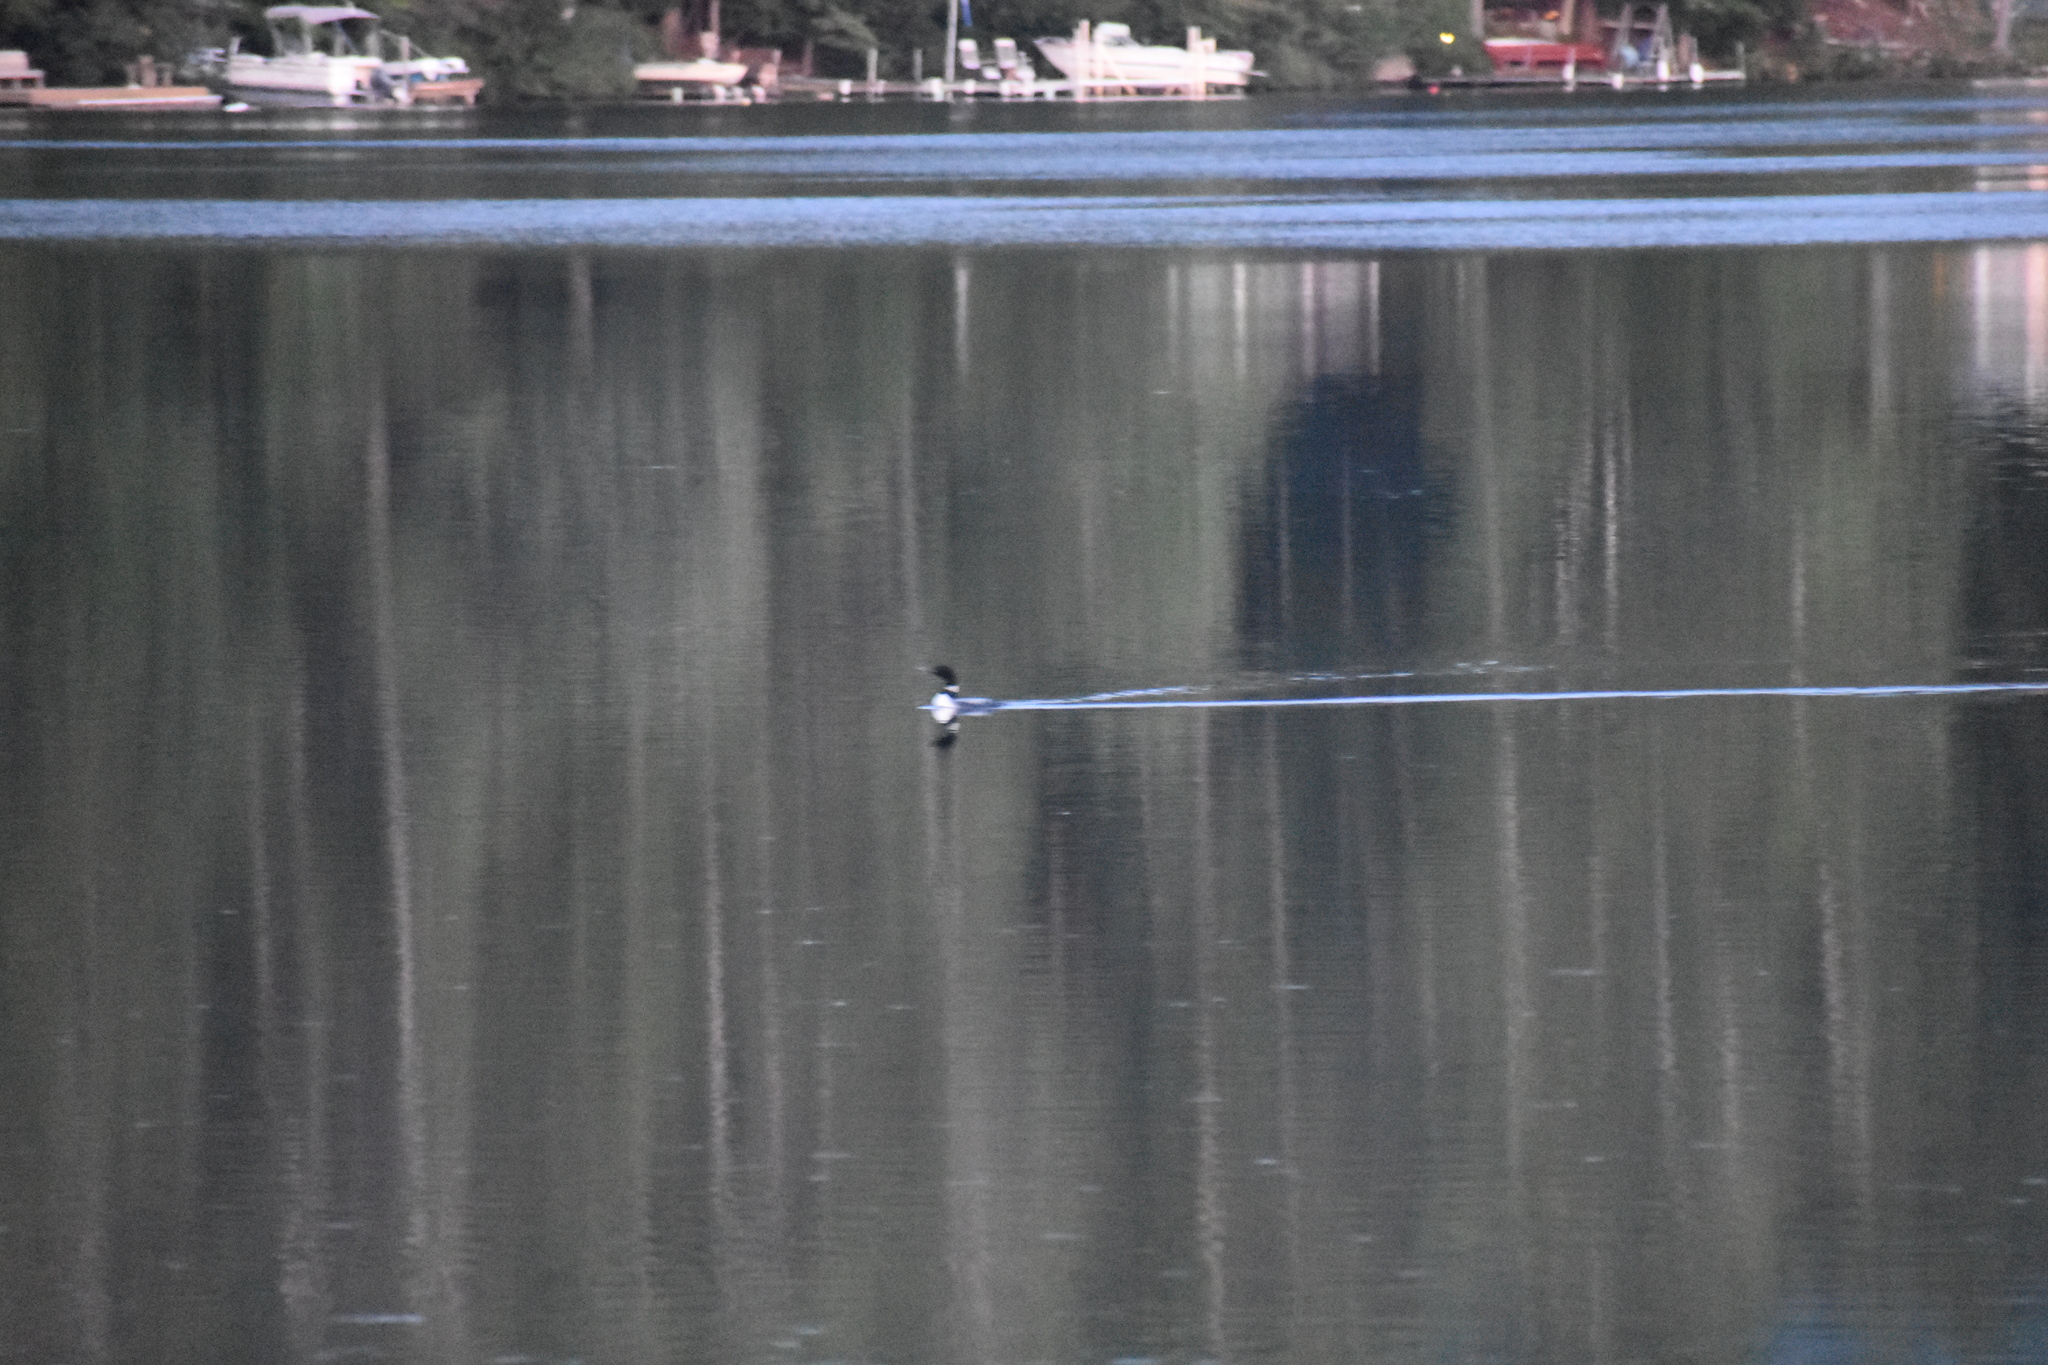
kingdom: Animalia
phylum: Chordata
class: Aves
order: Gaviiformes
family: Gaviidae
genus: Gavia
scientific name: Gavia immer
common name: Common loon
